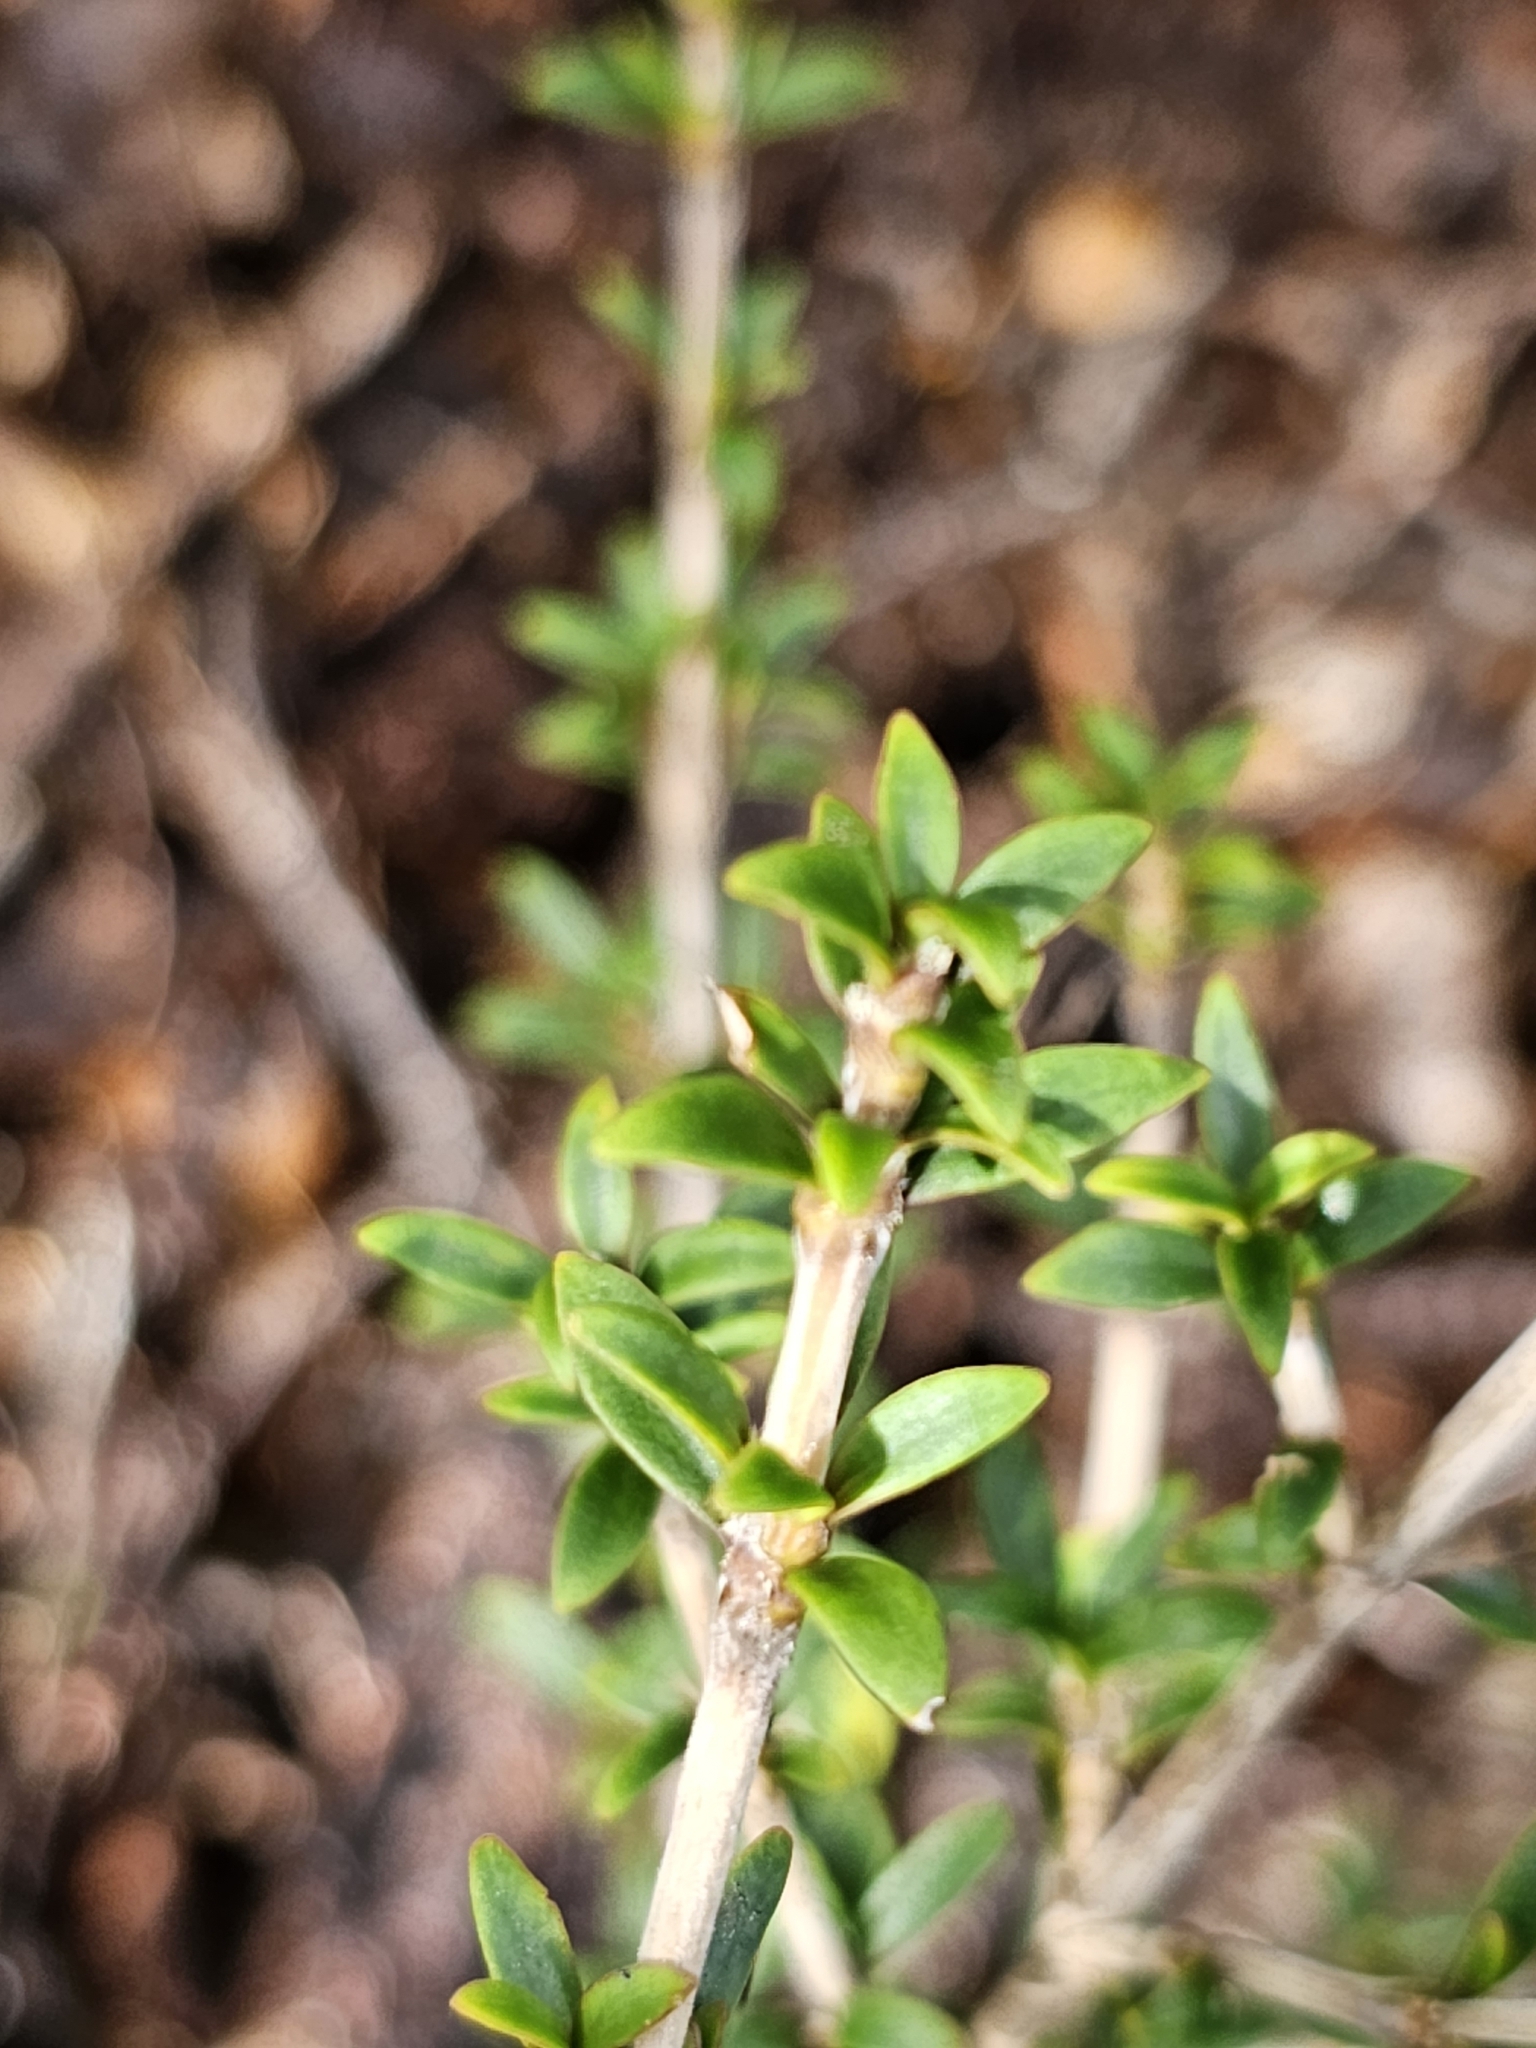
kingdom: Plantae
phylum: Tracheophyta
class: Magnoliopsida
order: Gentianales
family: Rubiaceae
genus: Coprosma
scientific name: Coprosma pseudocuneata
